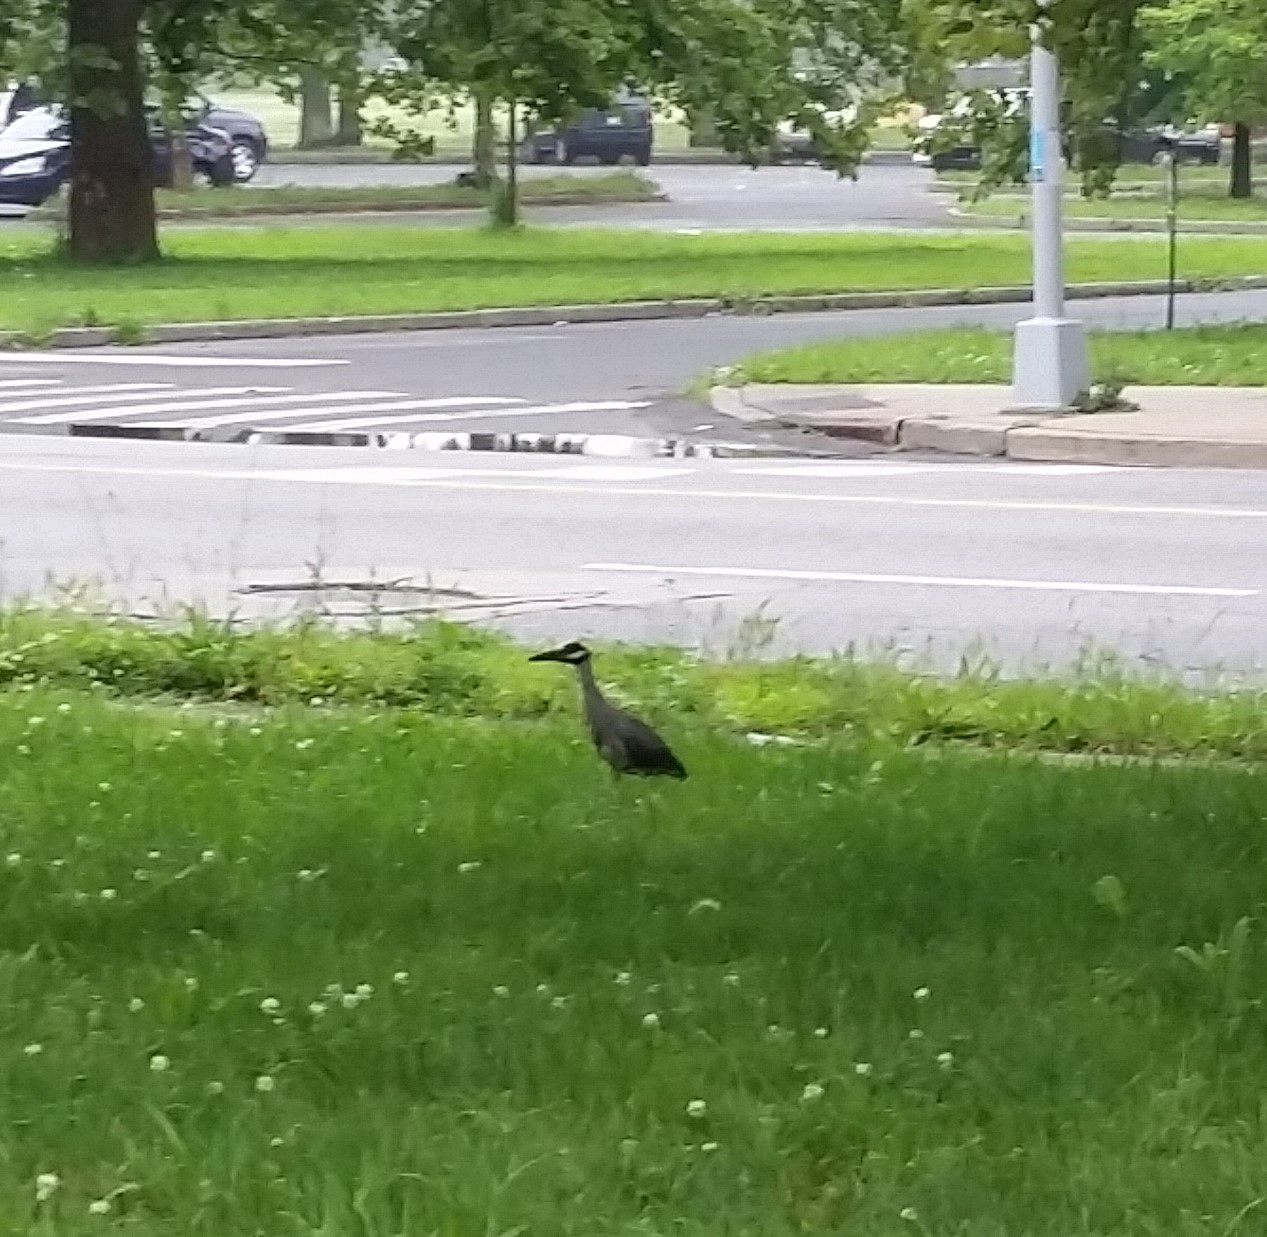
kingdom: Animalia
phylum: Chordata
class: Aves
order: Pelecaniformes
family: Ardeidae
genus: Nyctanassa
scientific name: Nyctanassa violacea
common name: Yellow-crowned night heron
